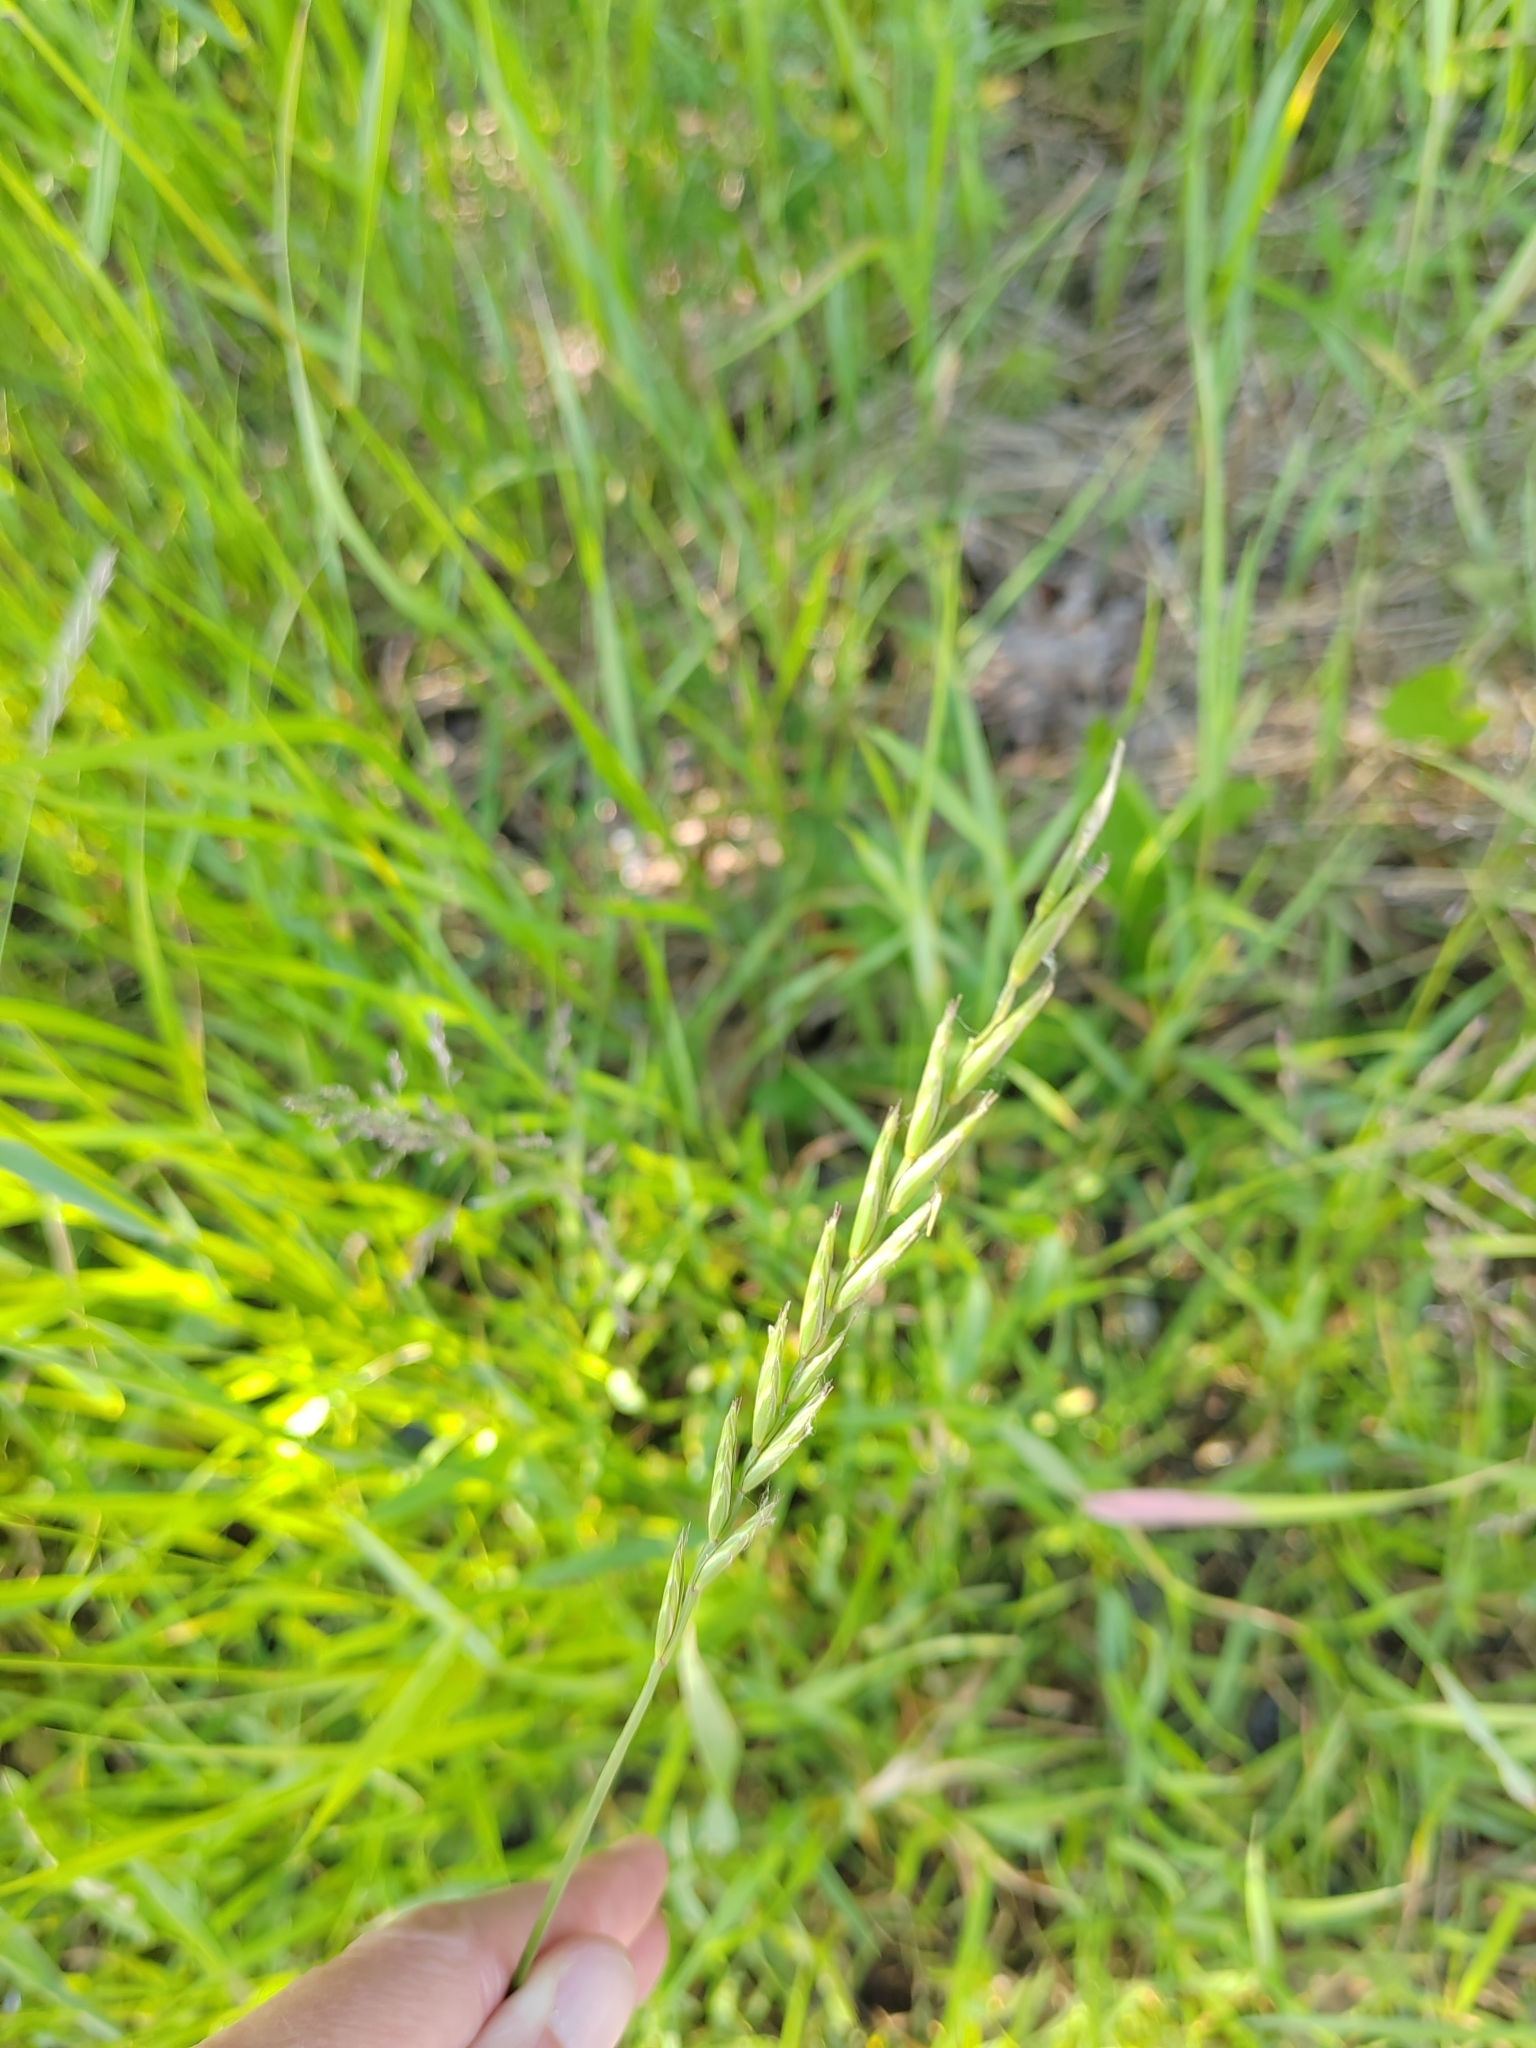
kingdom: Plantae
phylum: Tracheophyta
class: Liliopsida
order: Poales
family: Poaceae
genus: Elymus
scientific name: Elymus repens
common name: Quackgrass
